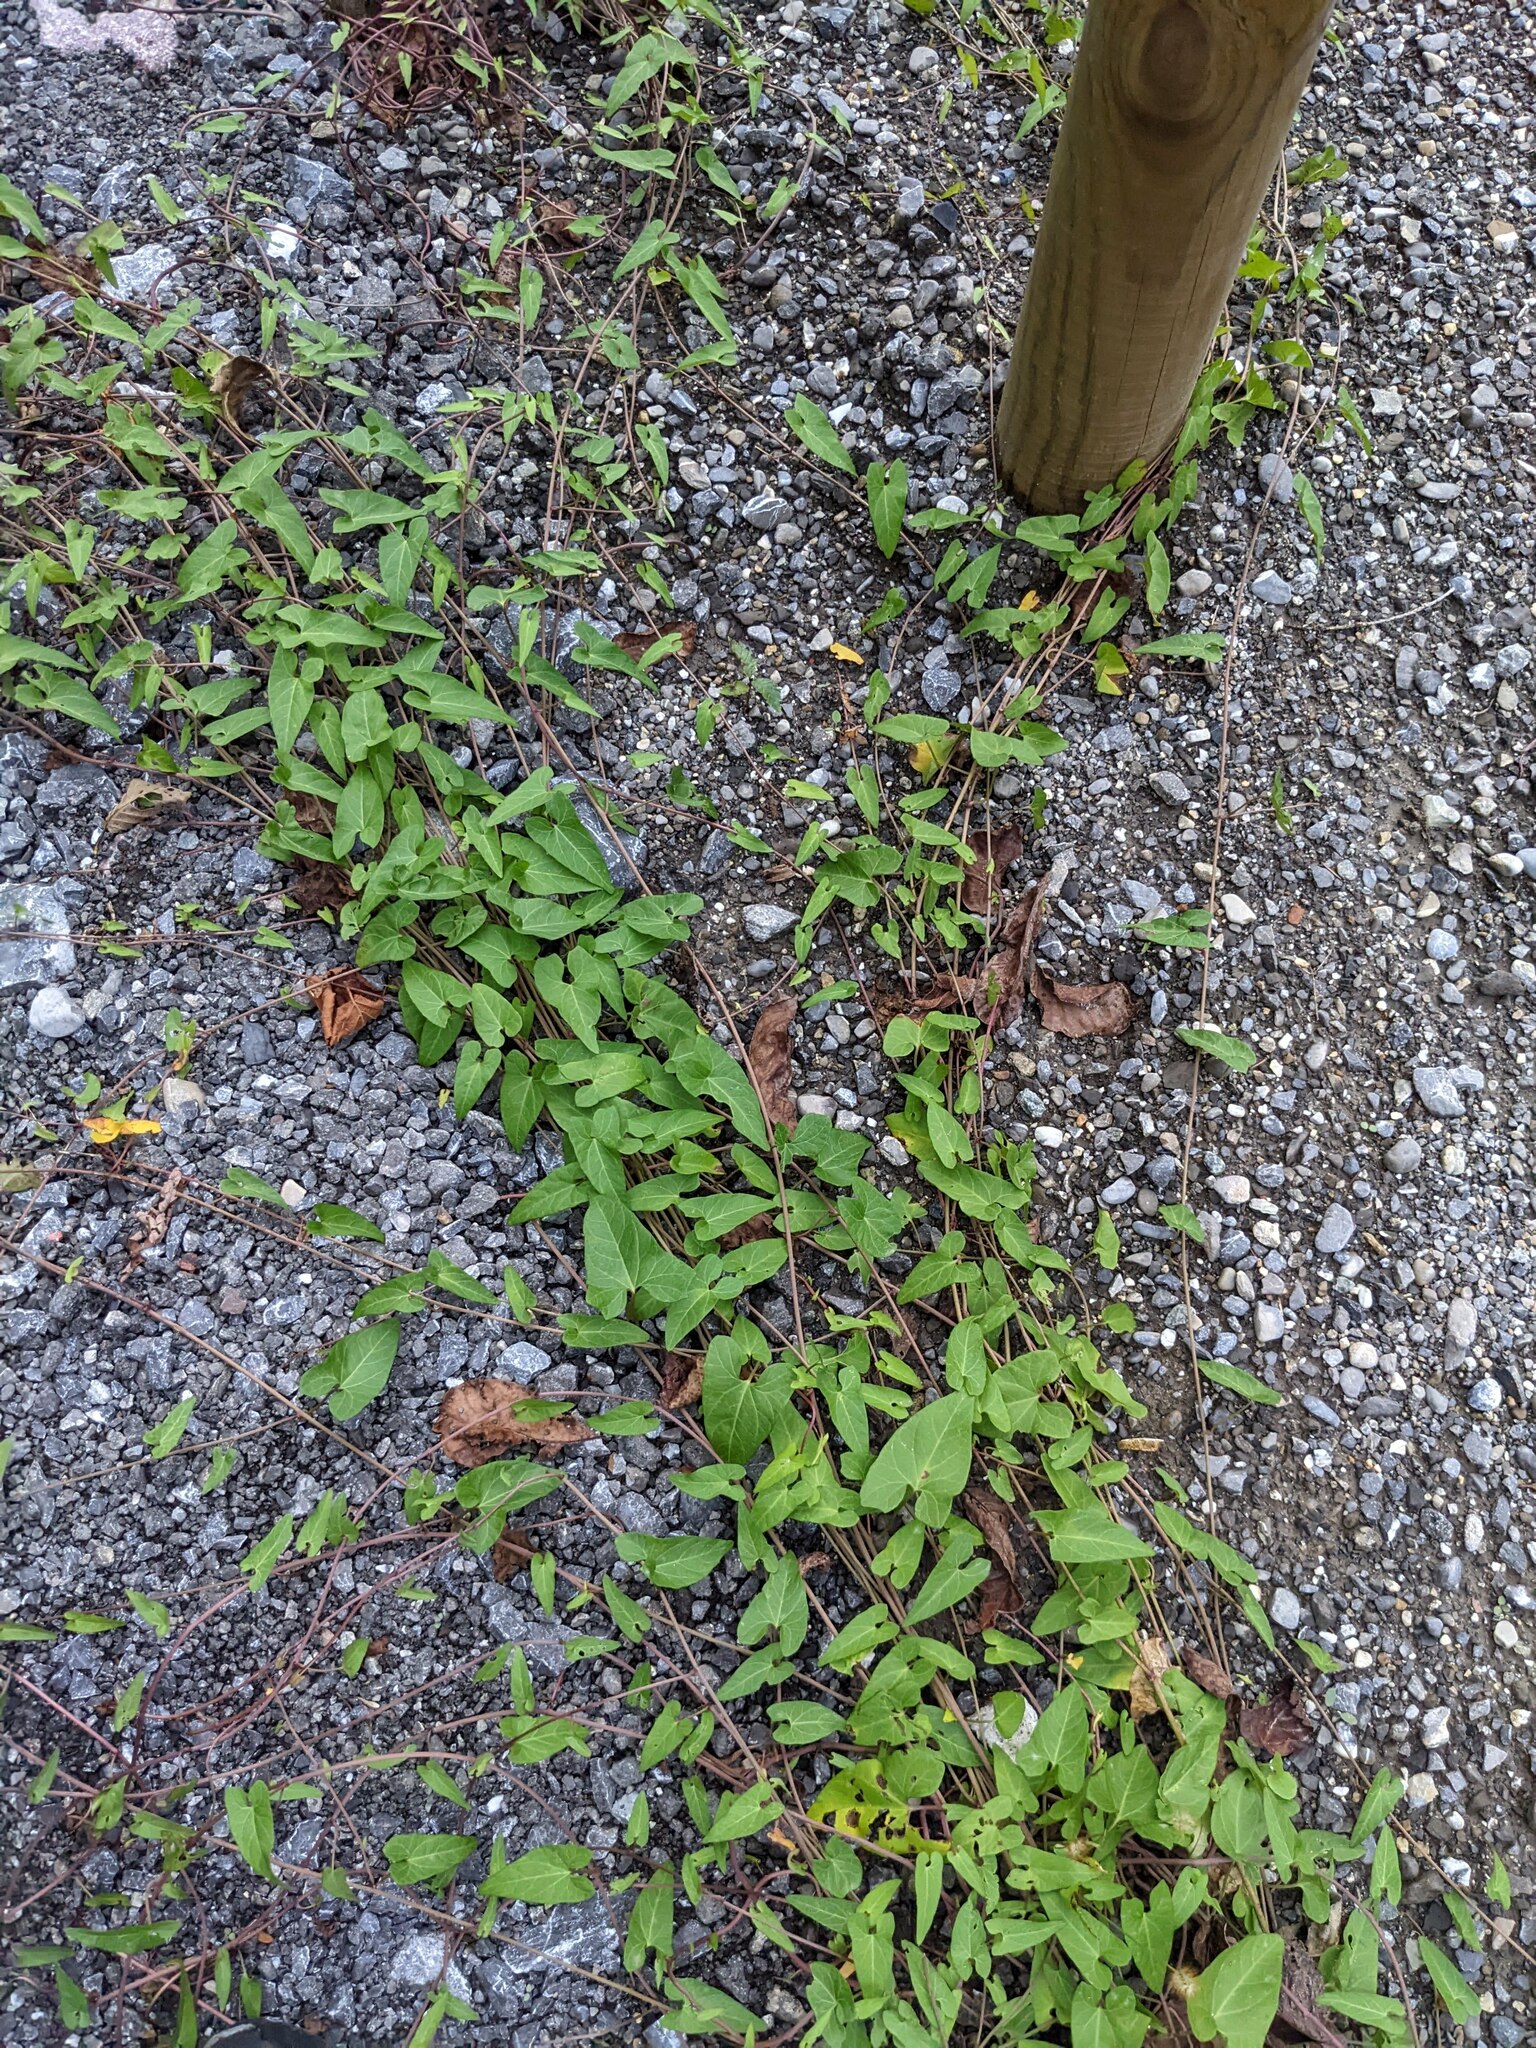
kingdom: Plantae
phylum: Tracheophyta
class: Magnoliopsida
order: Solanales
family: Convolvulaceae
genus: Calystegia
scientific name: Calystegia sepium
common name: Hedge bindweed
